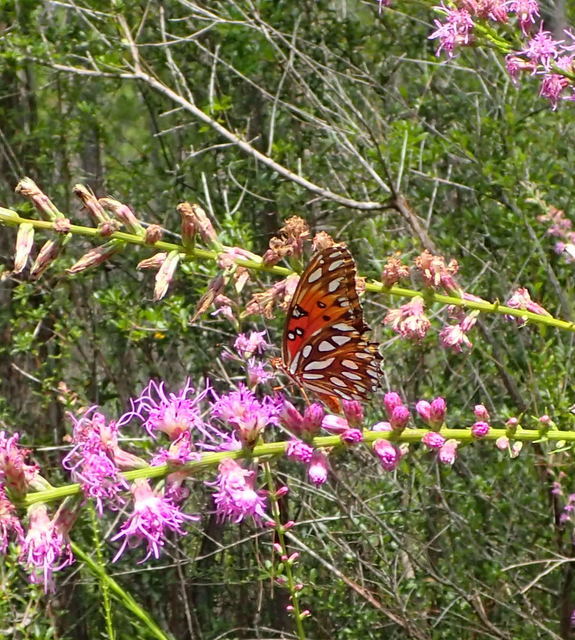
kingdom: Animalia
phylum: Arthropoda
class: Insecta
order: Lepidoptera
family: Nymphalidae
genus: Dione
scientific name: Dione vanillae
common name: Gulf fritillary
